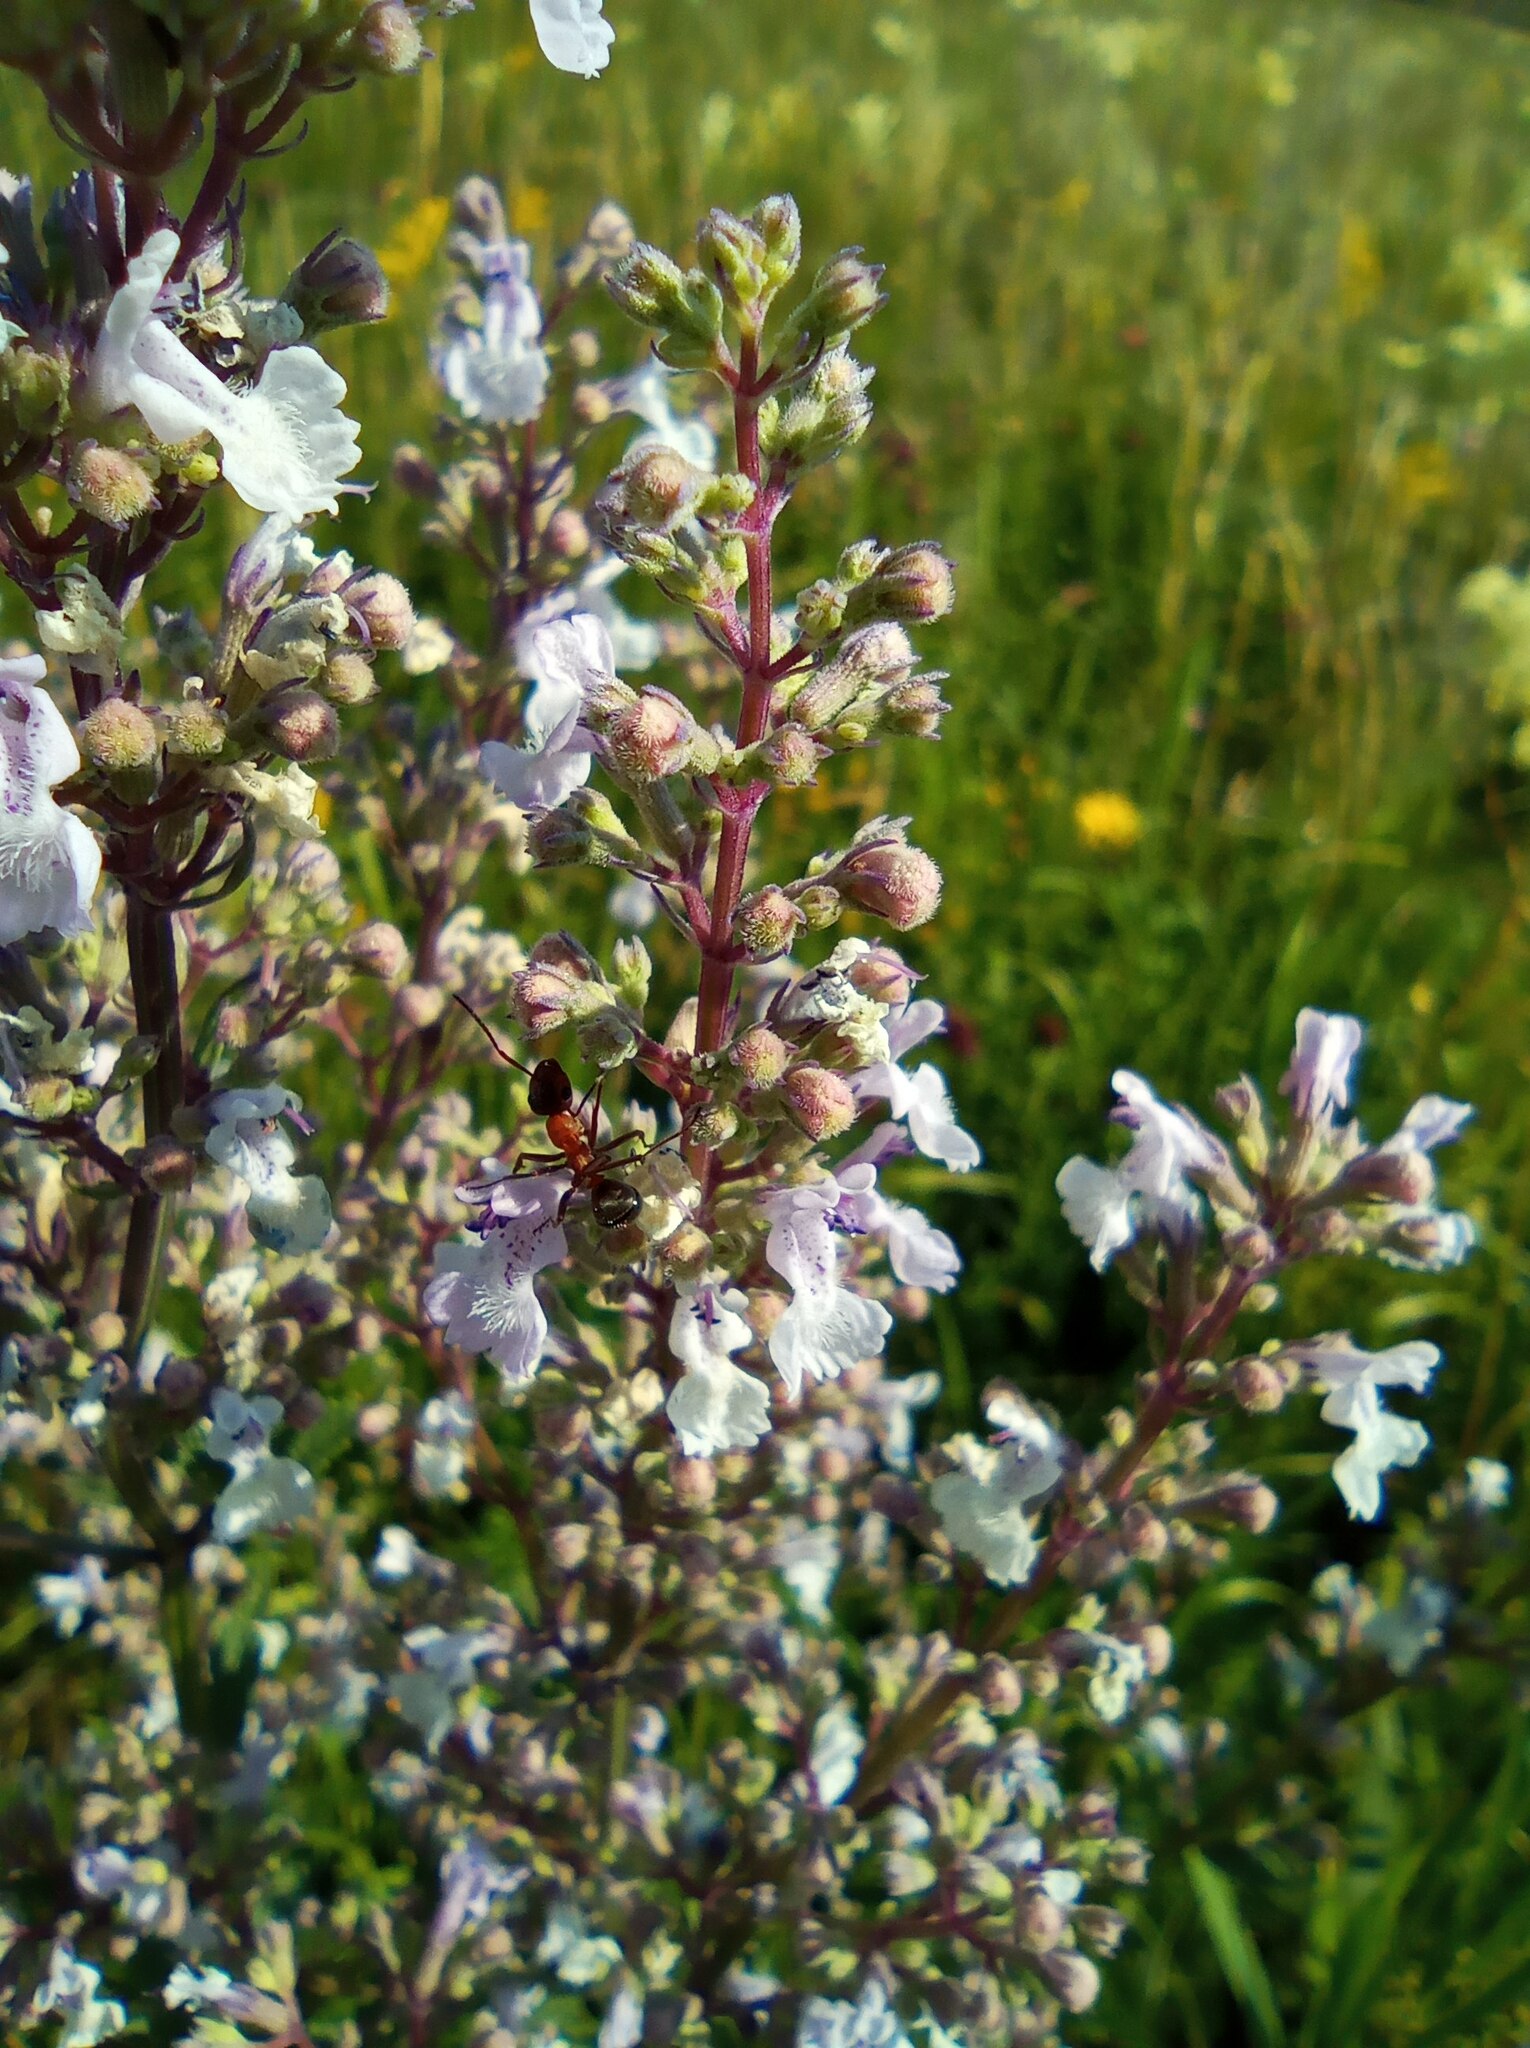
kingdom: Plantae
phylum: Tracheophyta
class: Magnoliopsida
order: Lamiales
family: Lamiaceae
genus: Nepeta
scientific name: Nepeta nuda
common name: Hairless catmint
